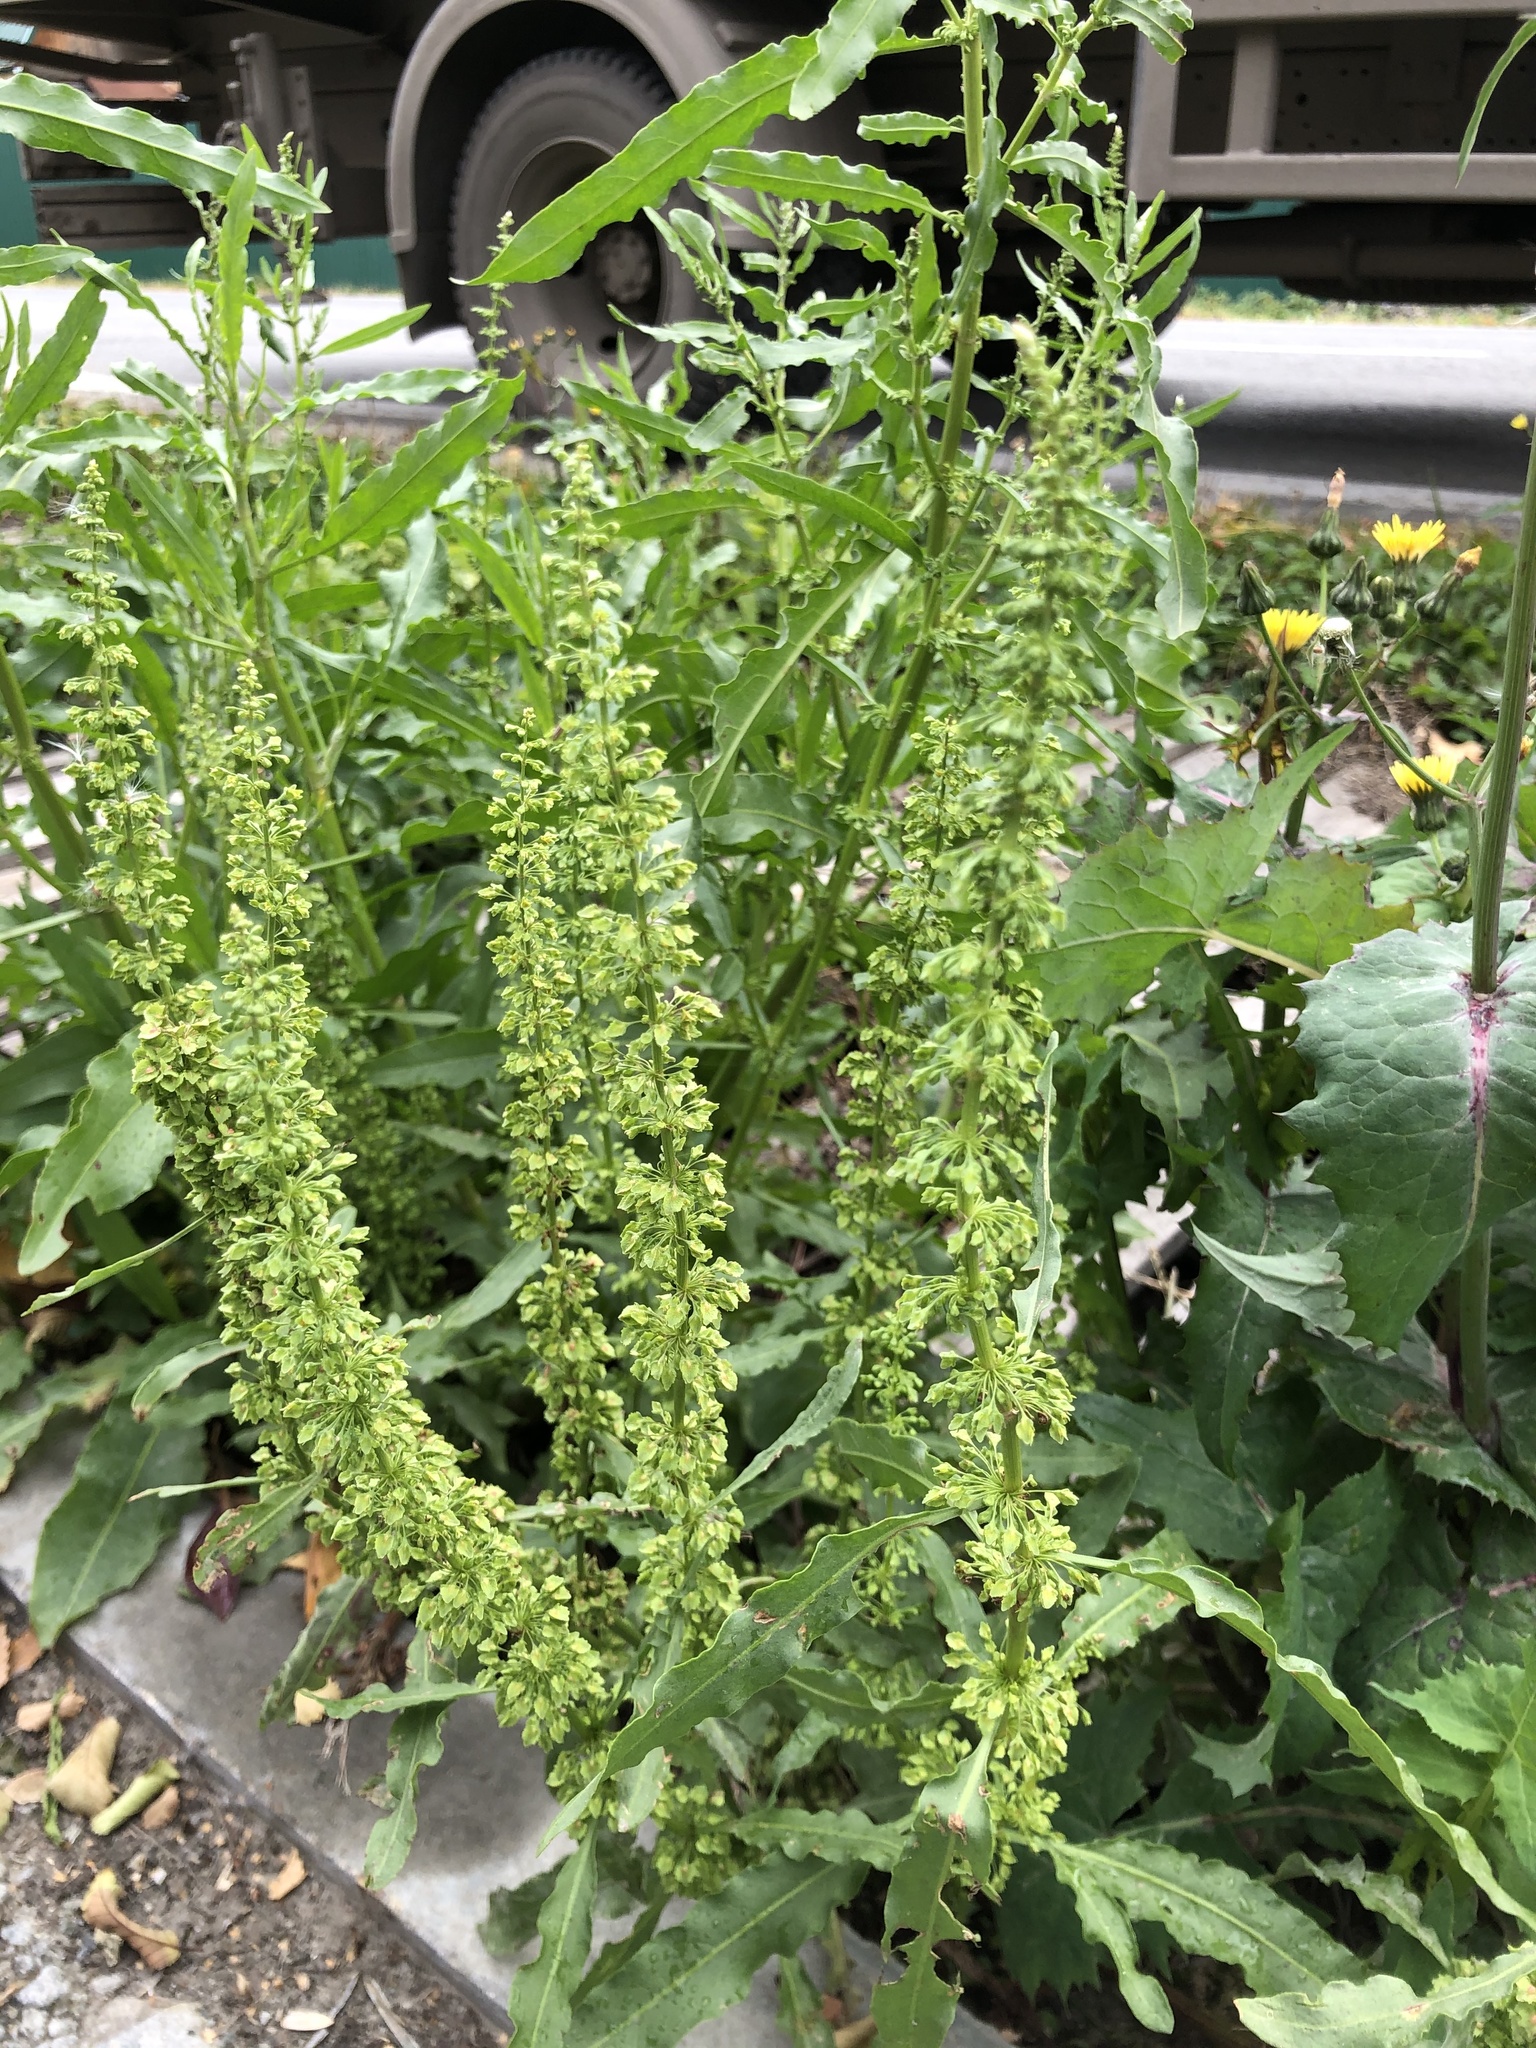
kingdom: Plantae
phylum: Tracheophyta
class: Magnoliopsida
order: Caryophyllales
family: Polygonaceae
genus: Rumex
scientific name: Rumex stenophyllus
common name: Narrowleaf dock
